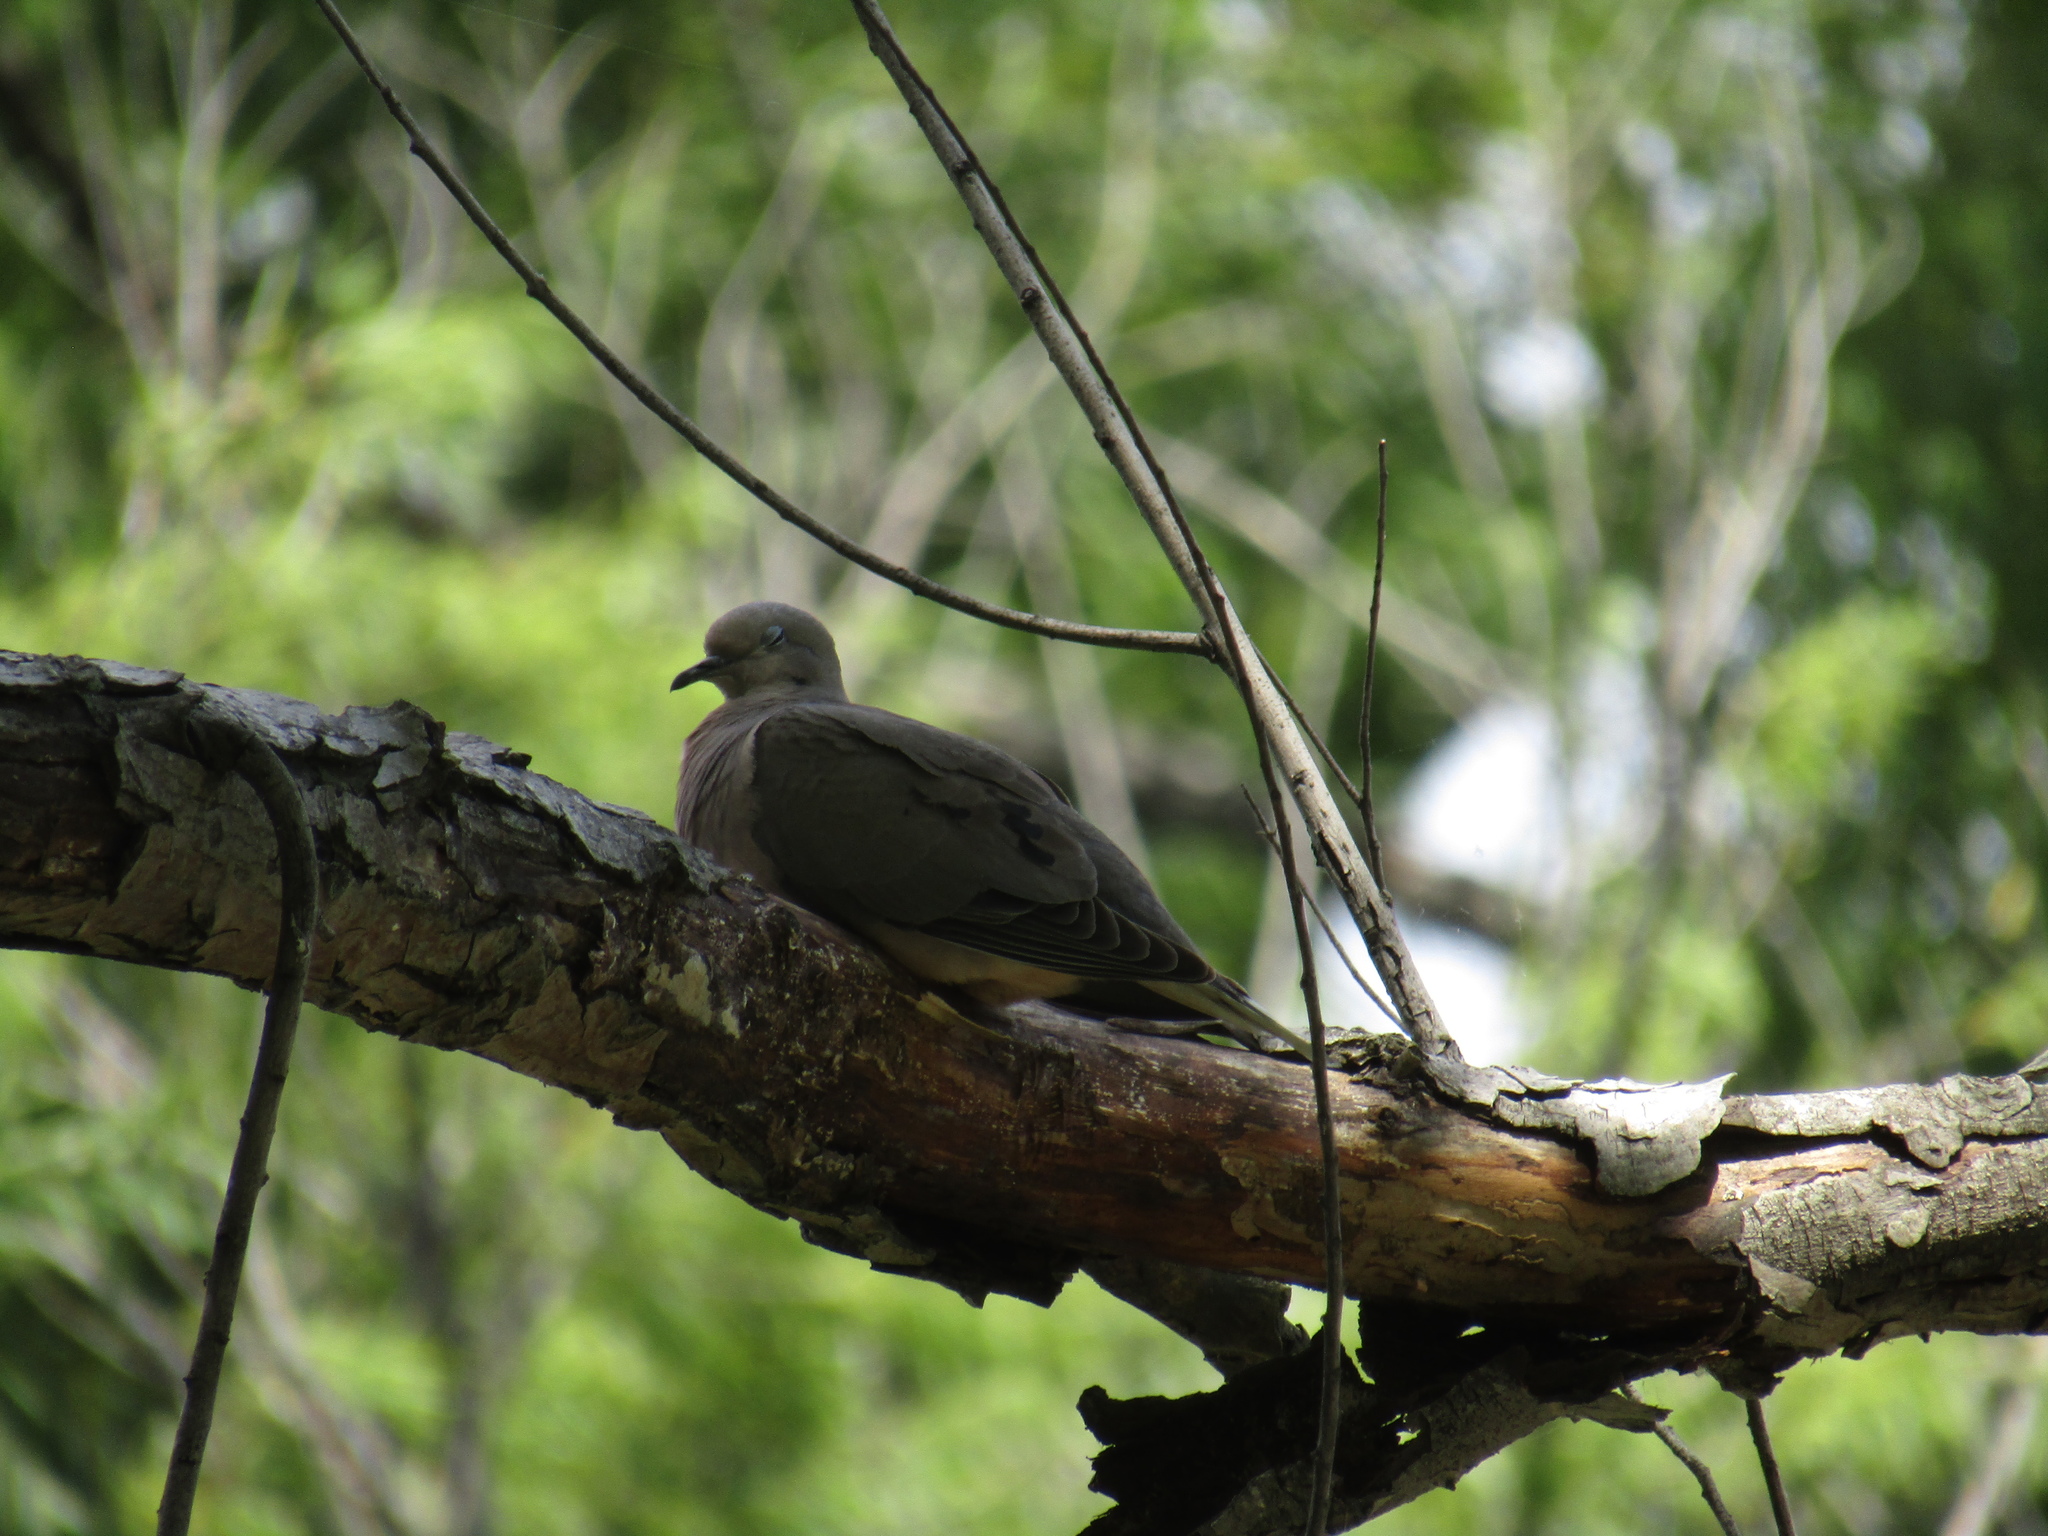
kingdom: Animalia
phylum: Chordata
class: Aves
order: Columbiformes
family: Columbidae
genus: Zenaida
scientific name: Zenaida auriculata
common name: Eared dove
